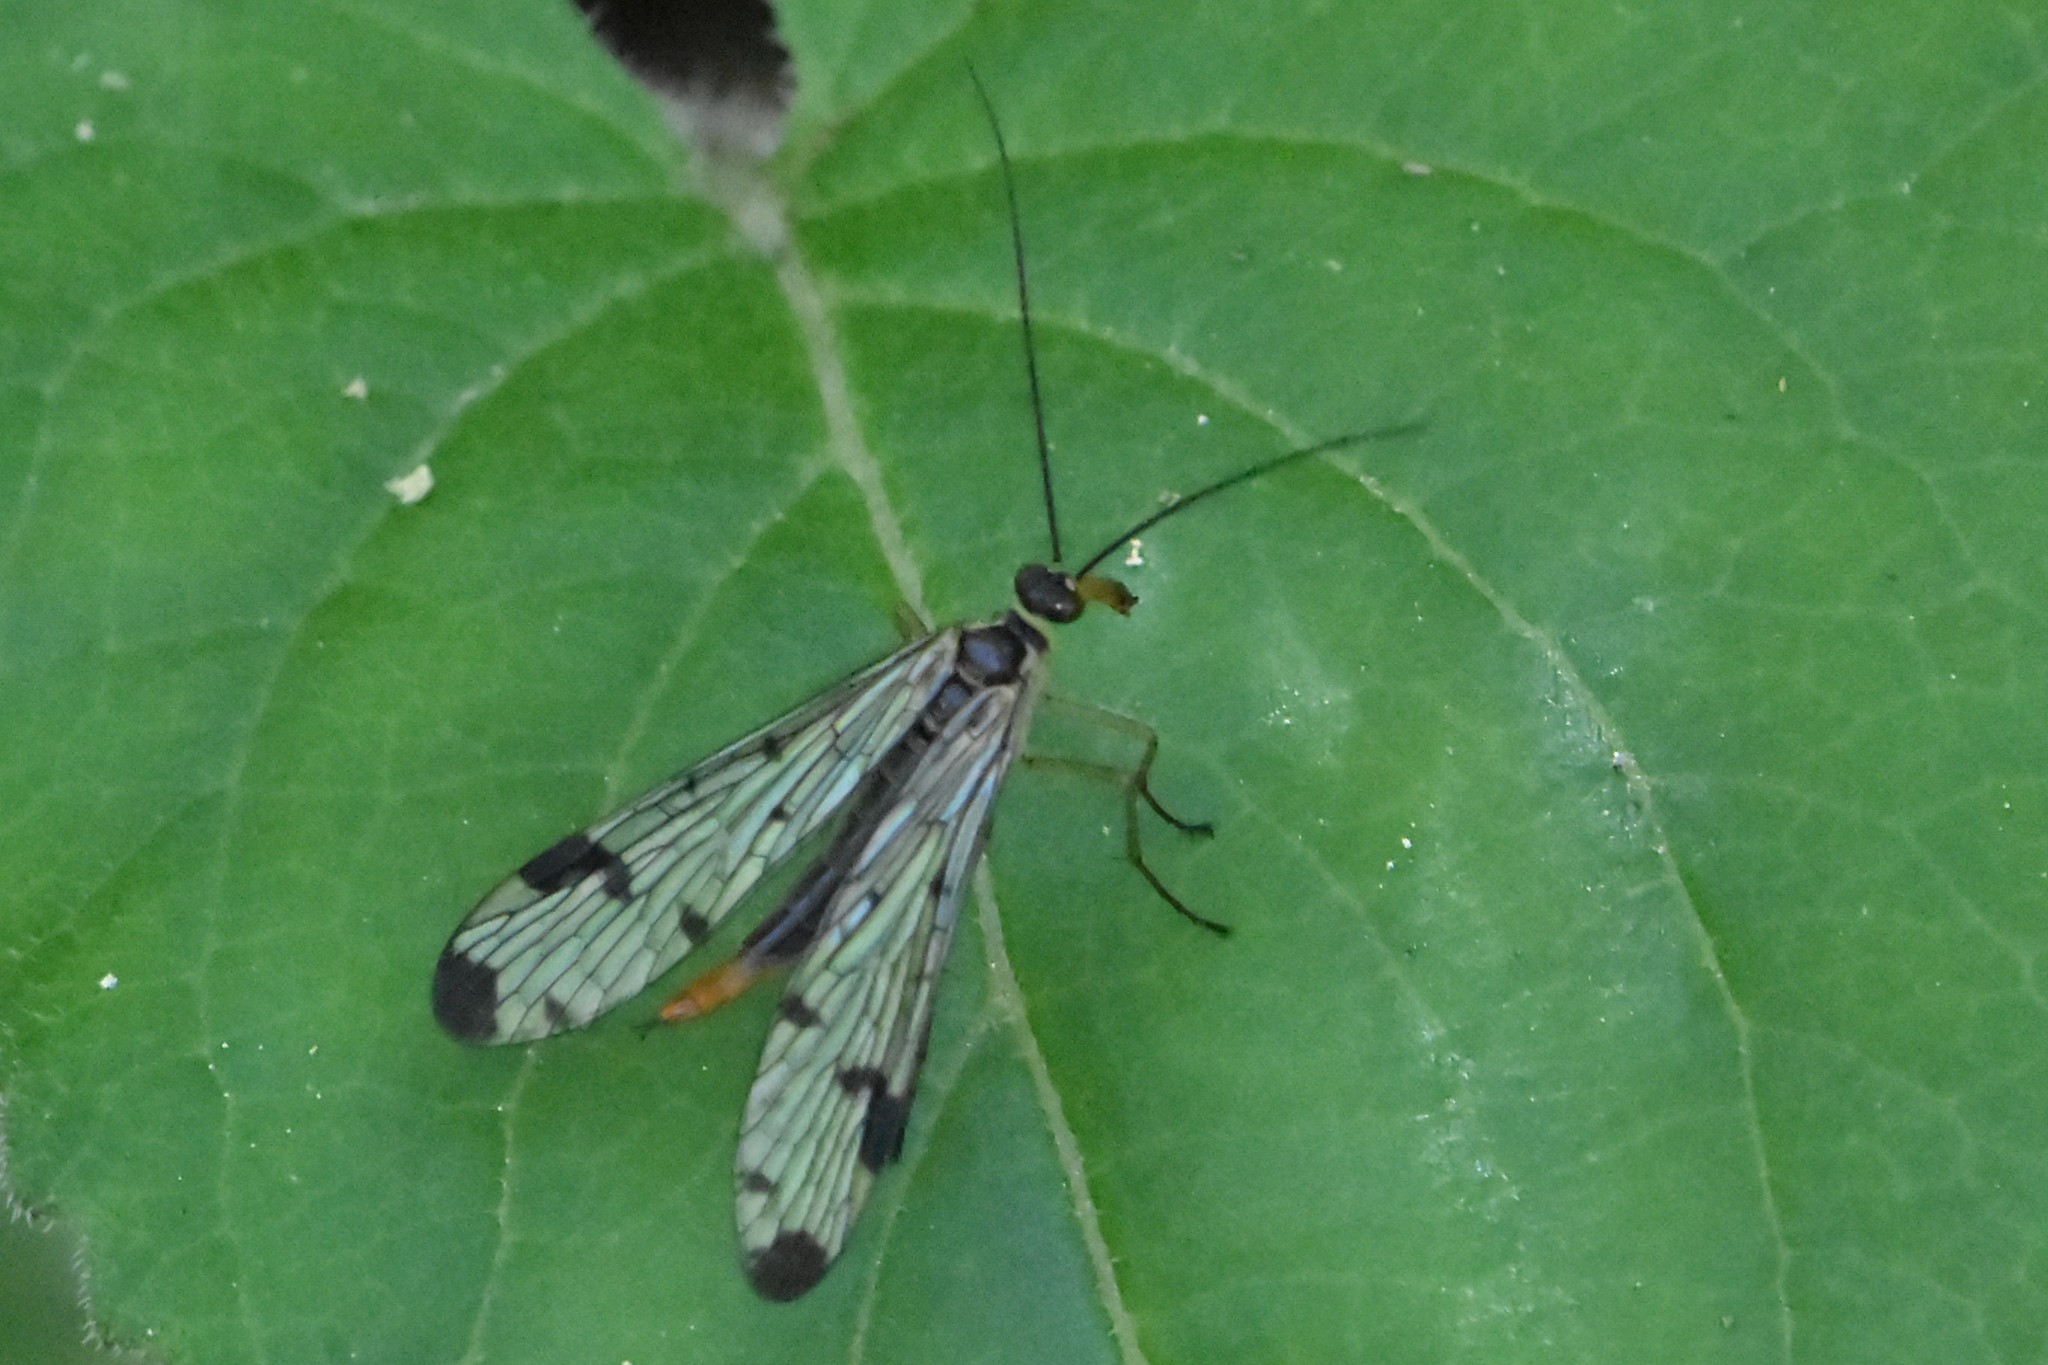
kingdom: Animalia
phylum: Arthropoda
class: Insecta
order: Mecoptera
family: Panorpidae
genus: Panorpa
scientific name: Panorpa connexa
